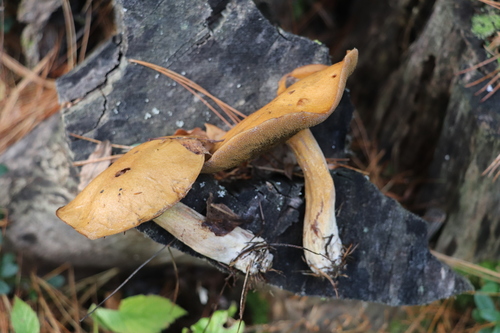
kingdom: Fungi
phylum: Basidiomycota
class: Agaricomycetes
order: Boletales
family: Suillaceae
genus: Suillus
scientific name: Suillus variegatus
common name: Velvet bolete
